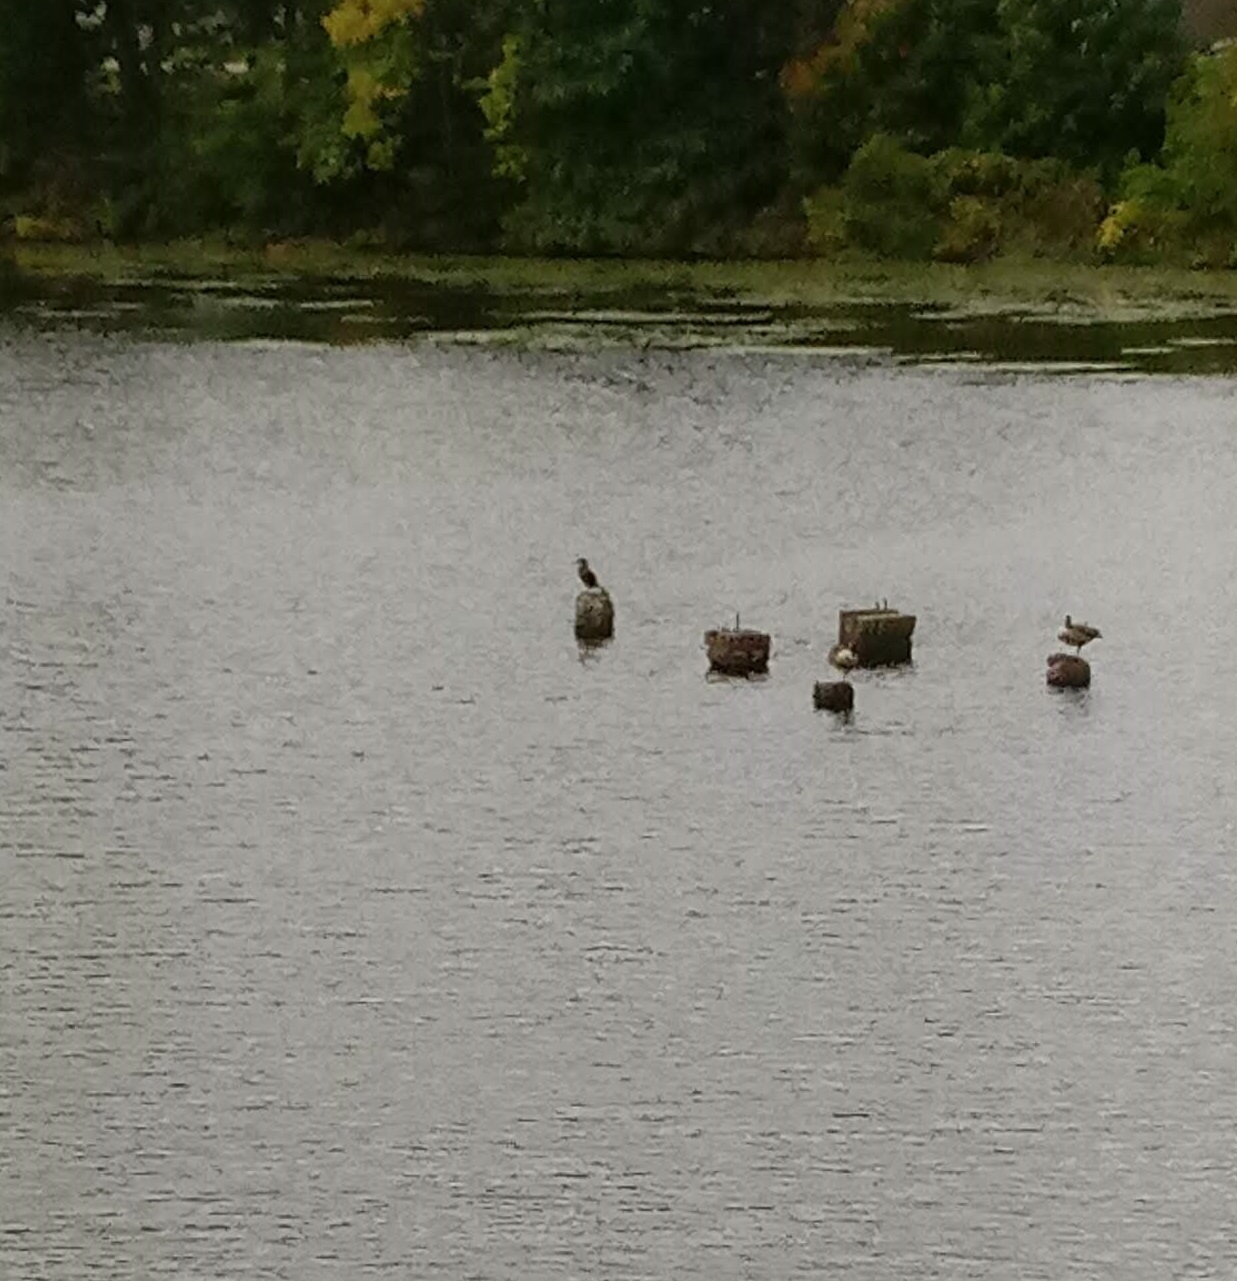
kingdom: Animalia
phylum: Chordata
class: Aves
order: Suliformes
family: Phalacrocoracidae
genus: Phalacrocorax
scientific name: Phalacrocorax auritus
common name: Double-crested cormorant
